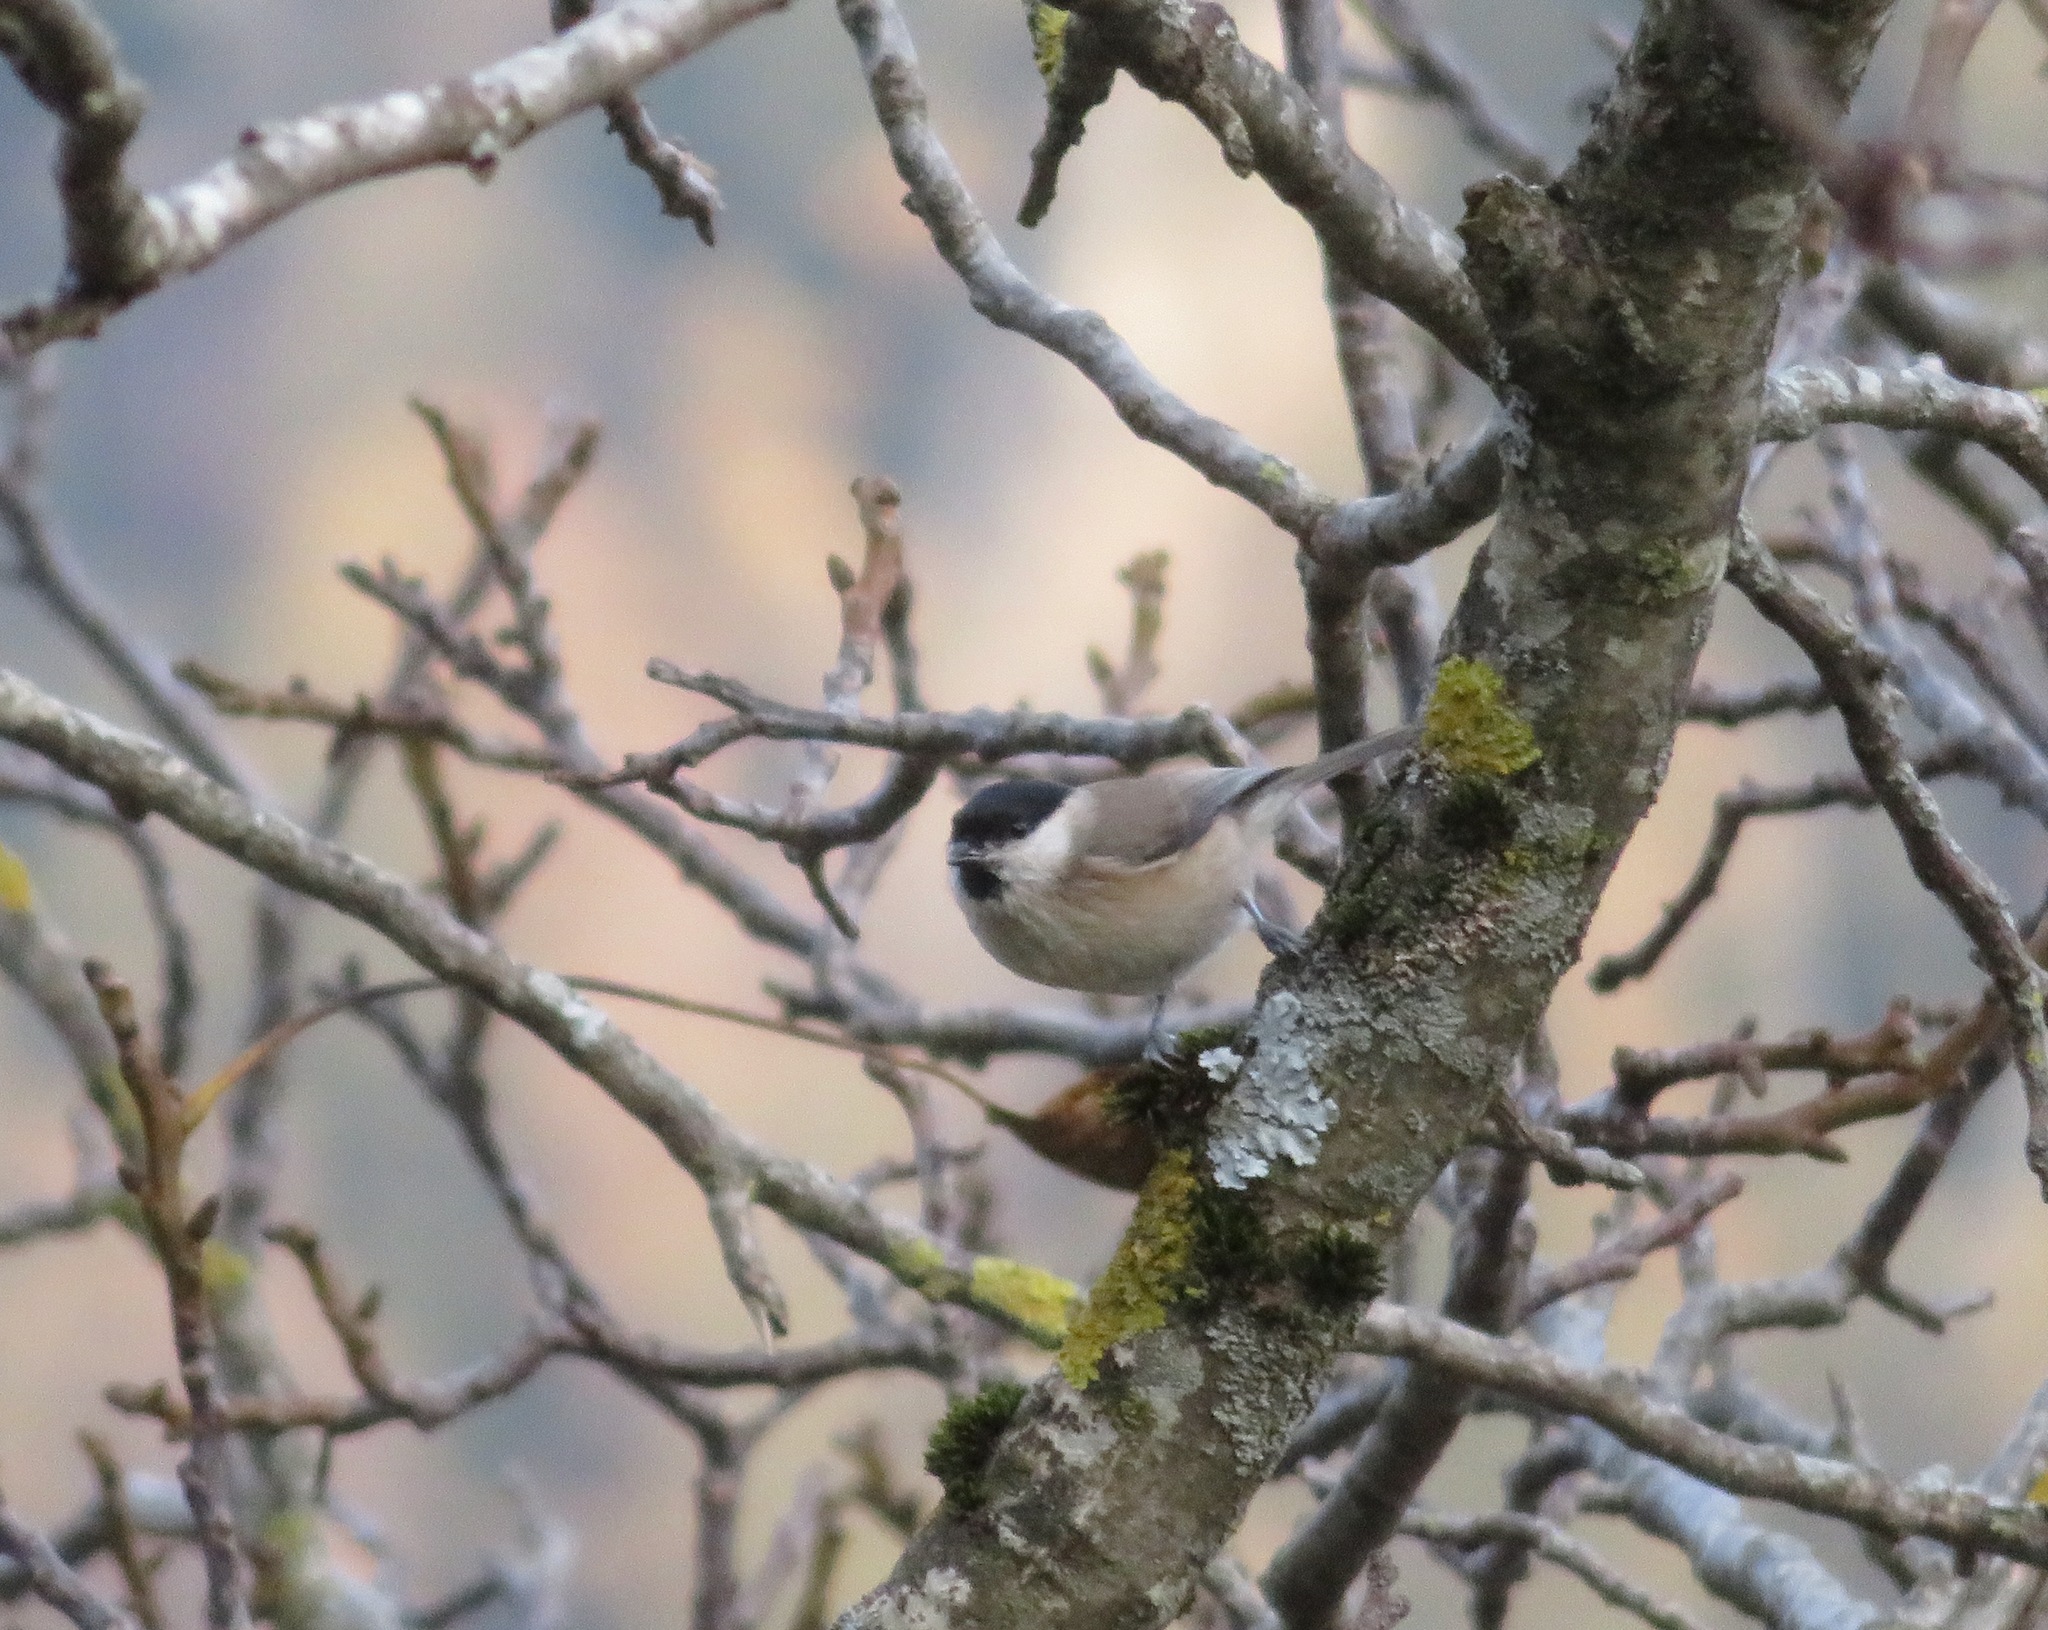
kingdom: Animalia
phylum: Chordata
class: Aves
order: Passeriformes
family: Paridae
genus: Poecile
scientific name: Poecile palustris
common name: Marsh tit
